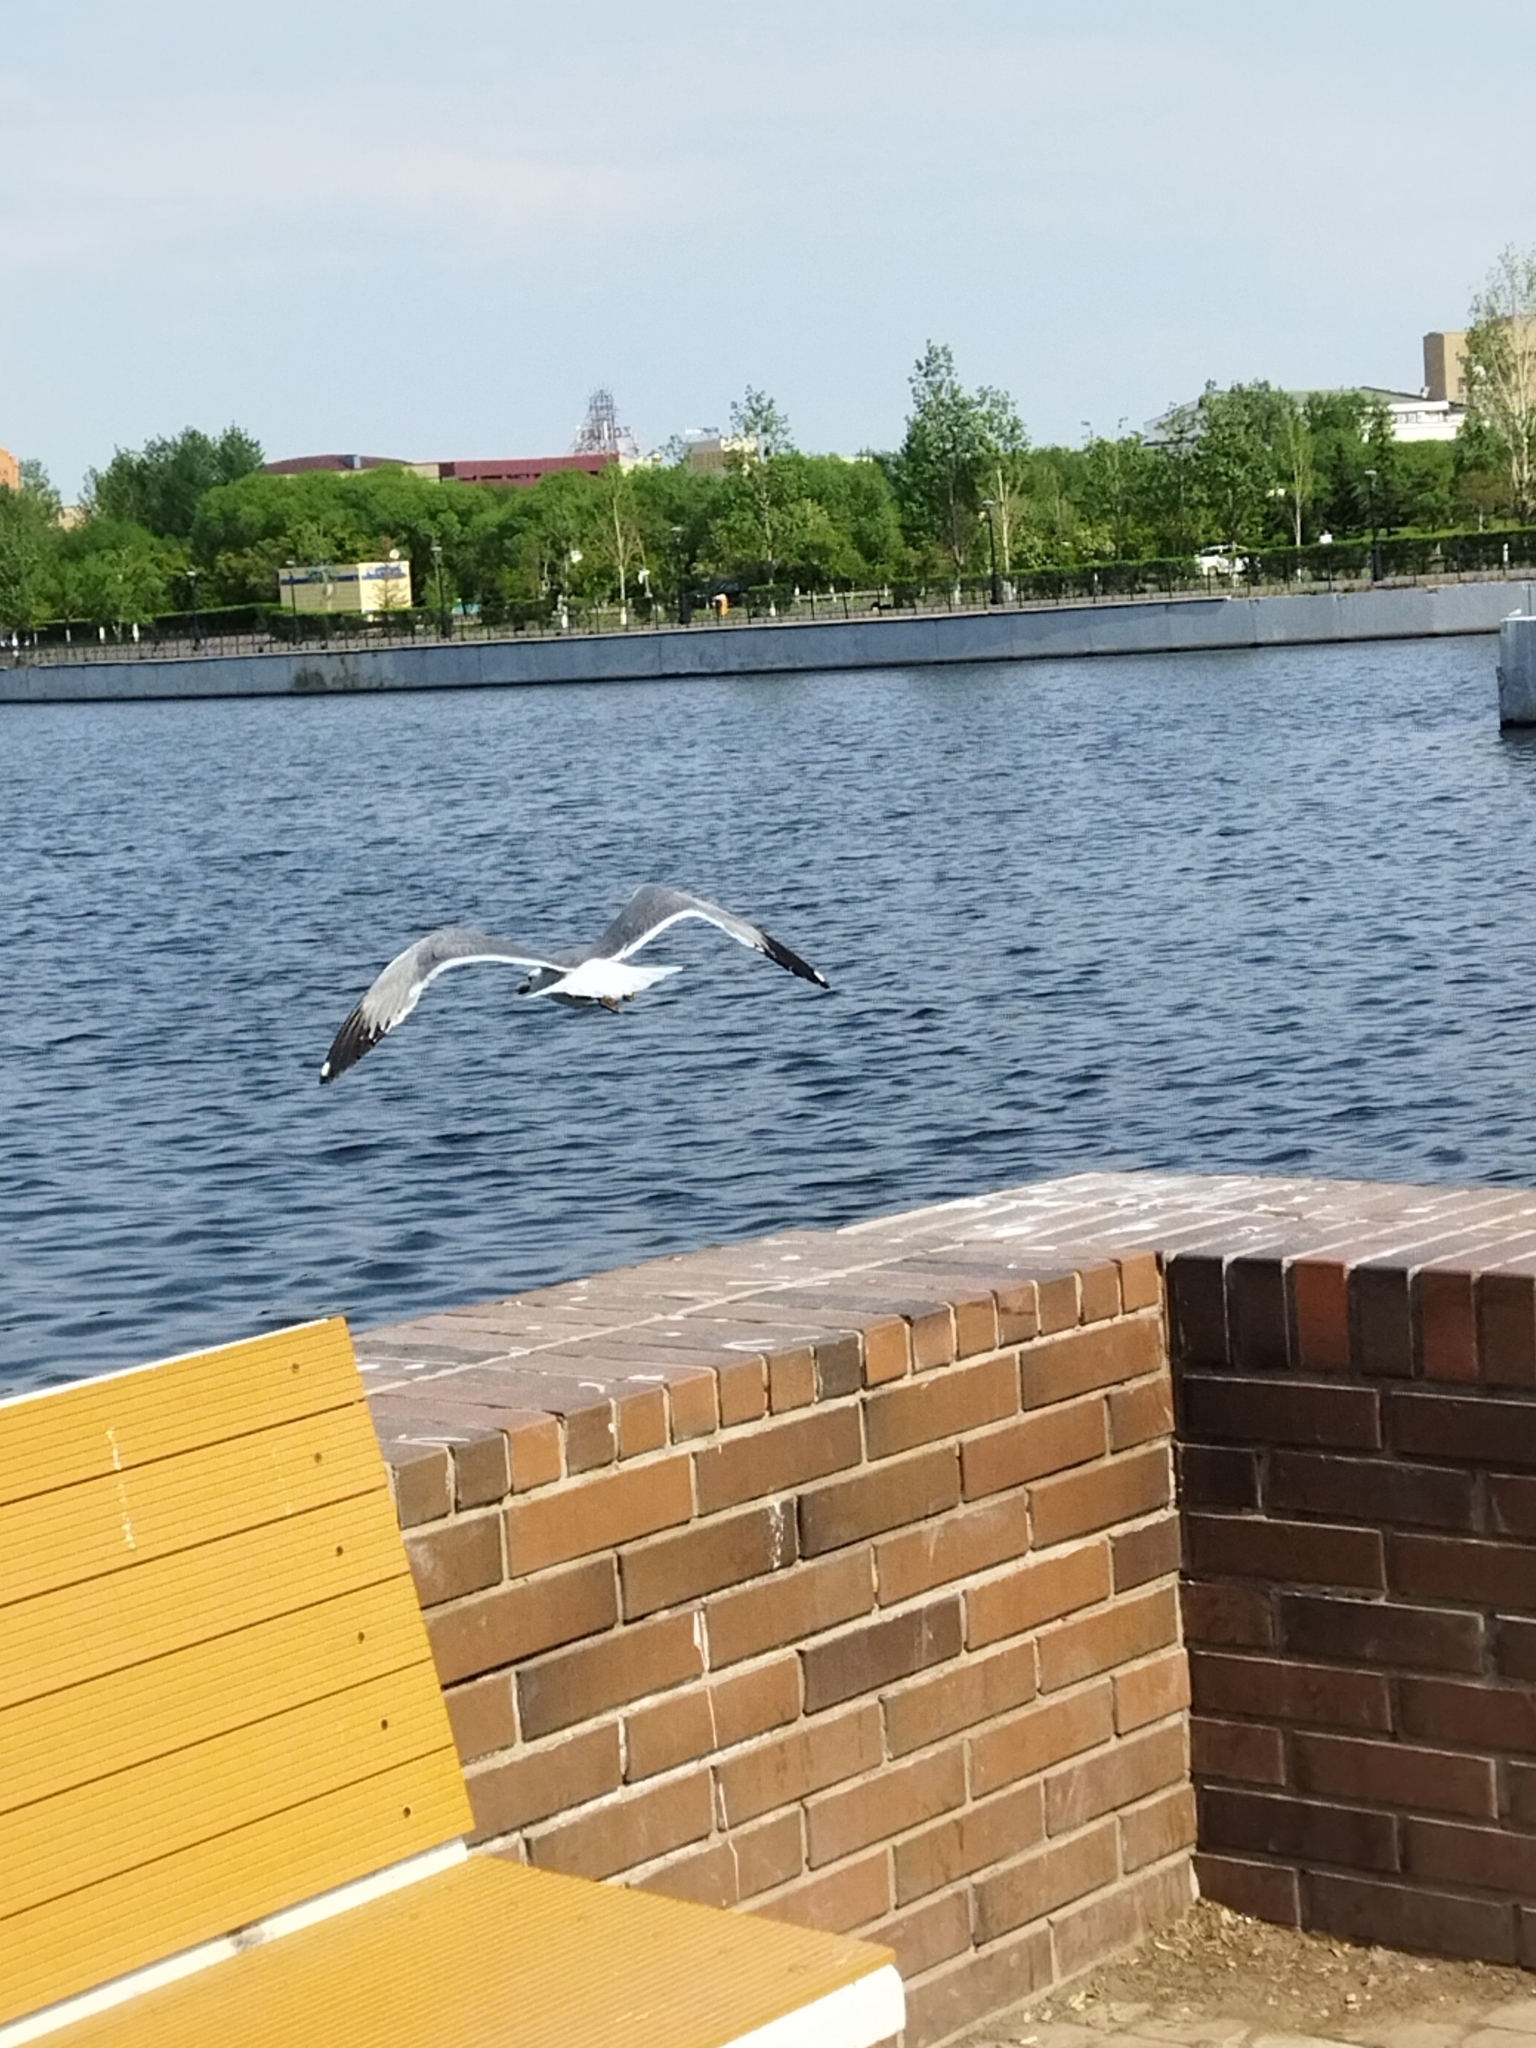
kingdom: Animalia
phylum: Chordata
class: Aves
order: Charadriiformes
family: Laridae
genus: Larus
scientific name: Larus cachinnans
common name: Caspian gull
